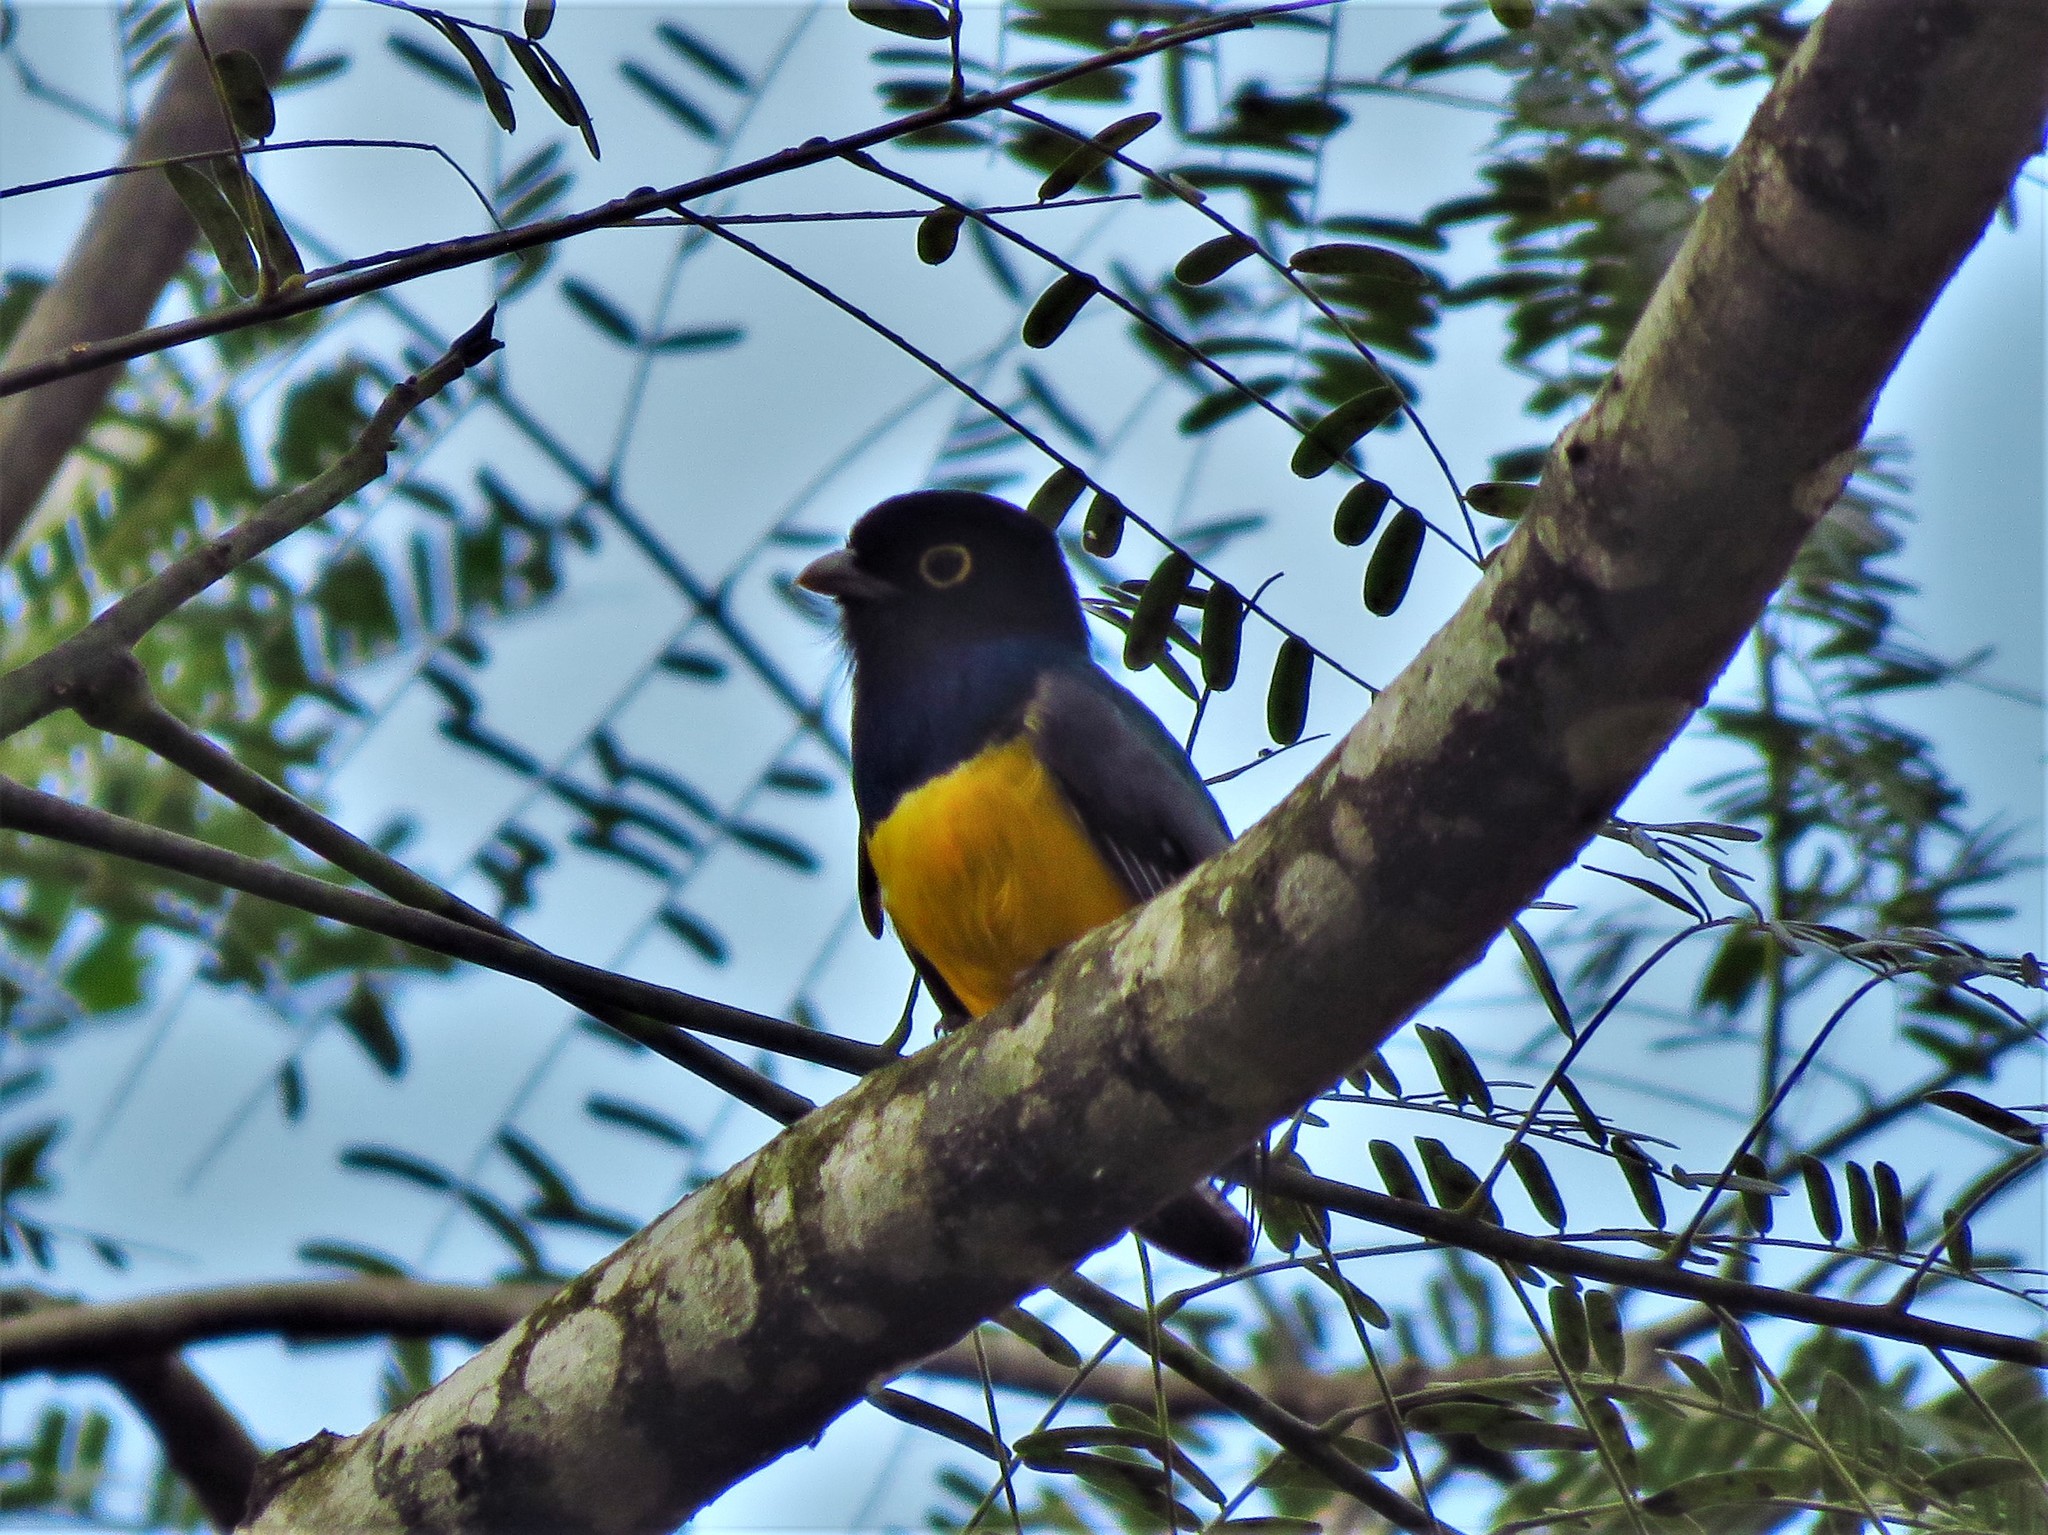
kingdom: Animalia
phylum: Chordata
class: Aves
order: Trogoniformes
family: Trogonidae
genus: Trogon
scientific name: Trogon caligatus
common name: Gartered trogon
